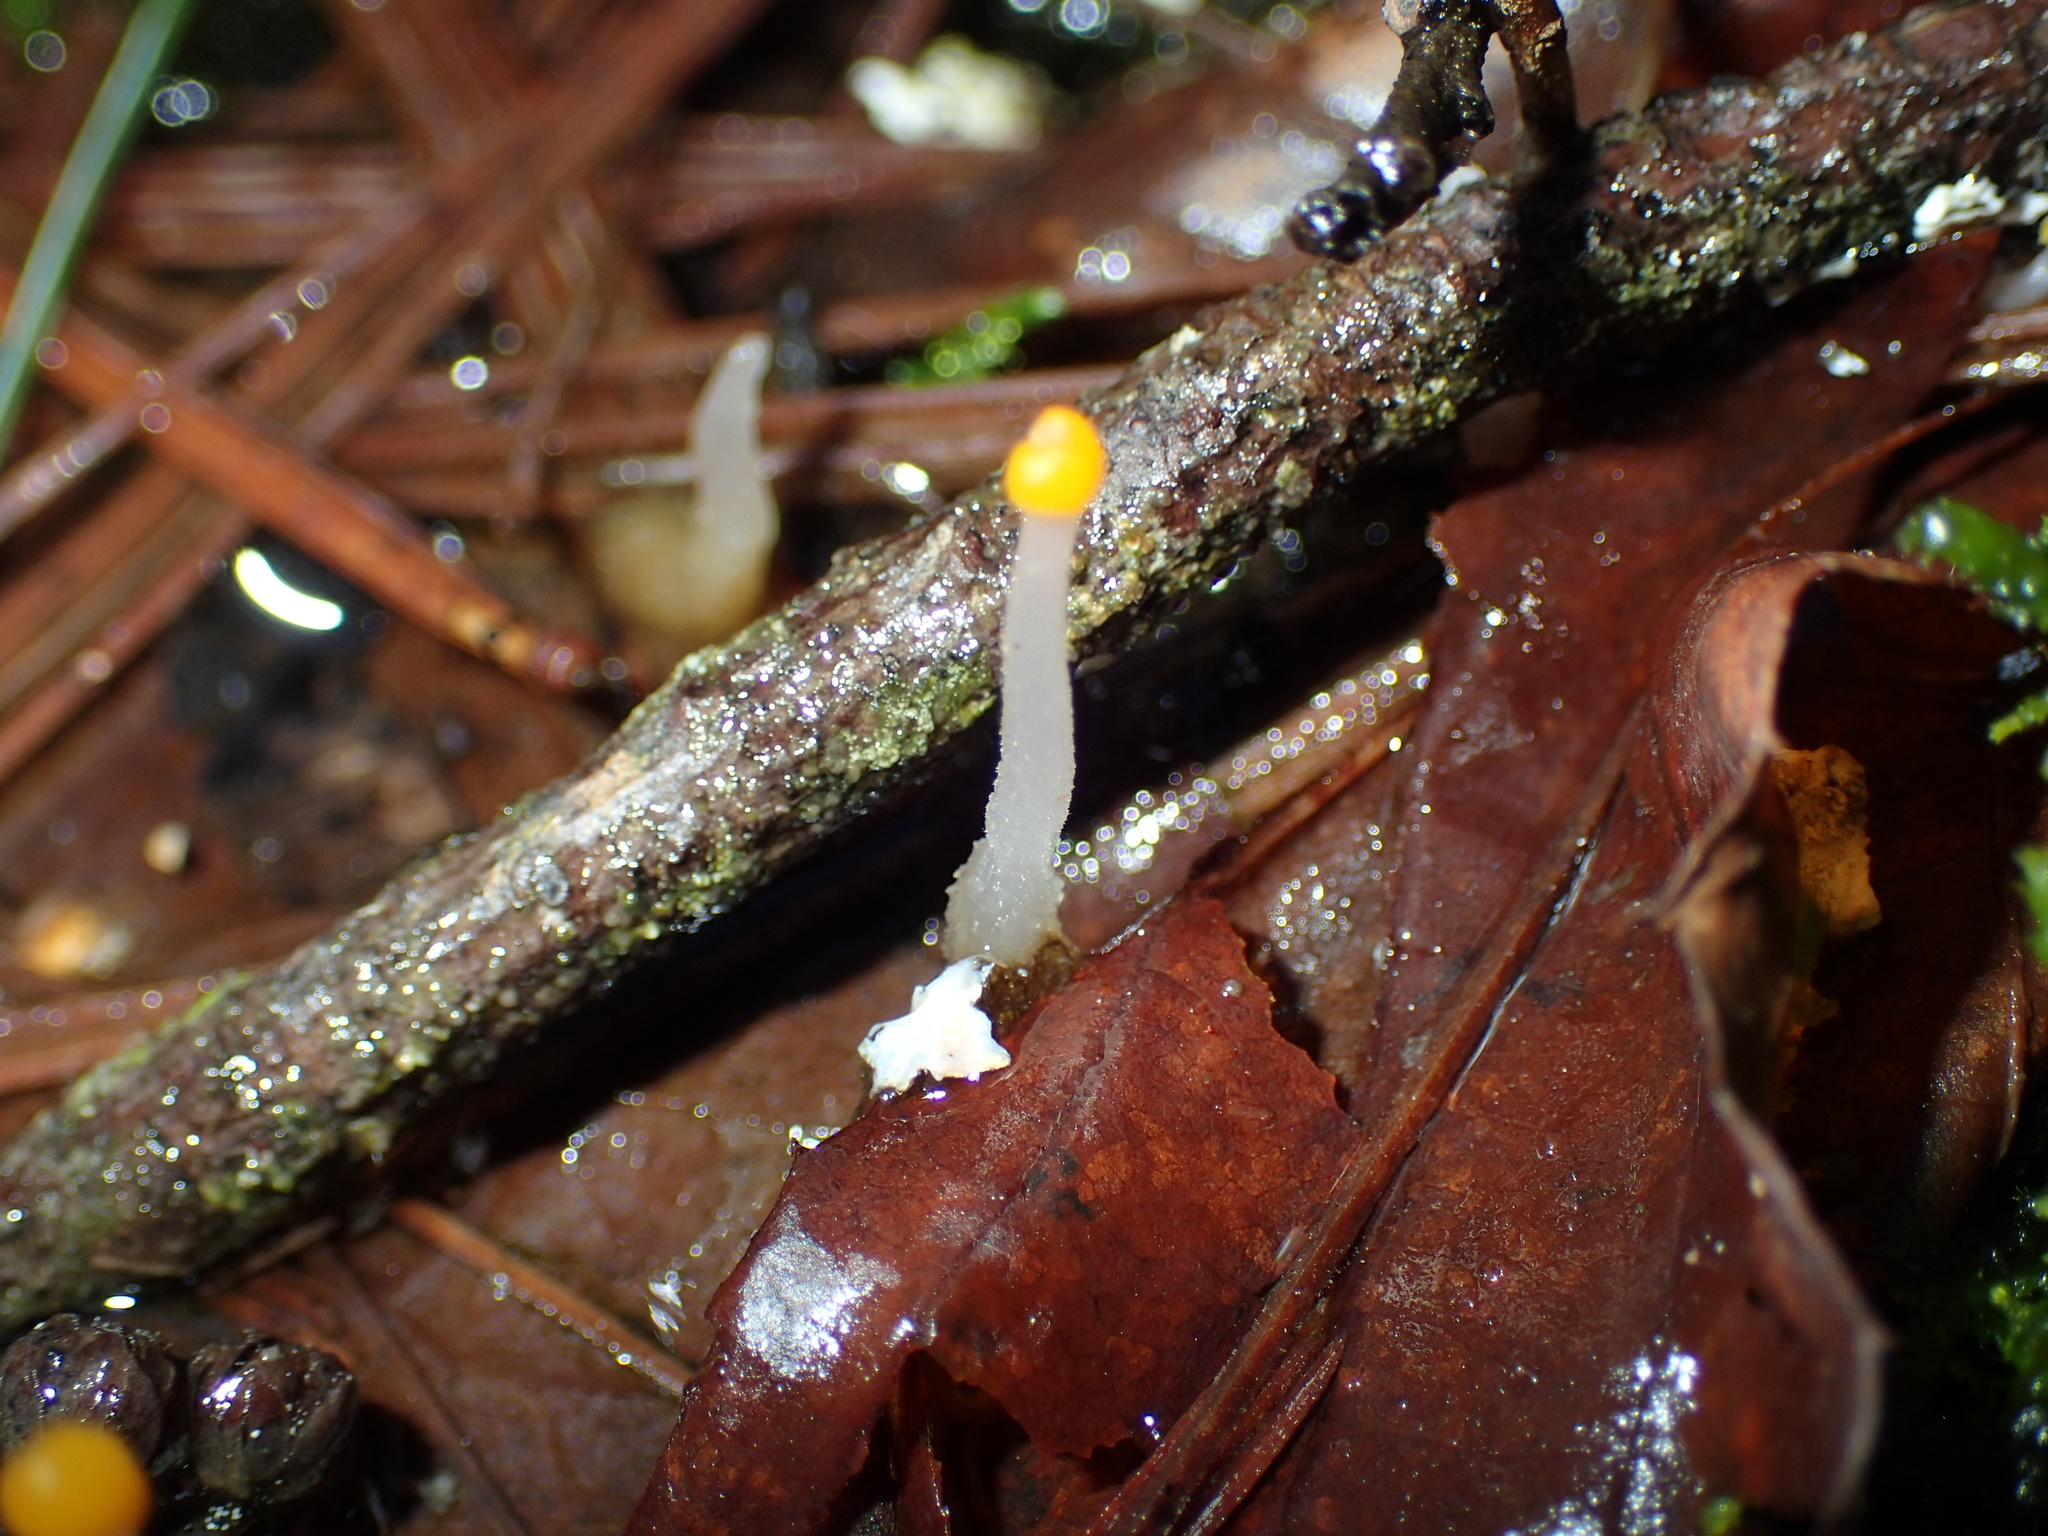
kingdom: Fungi
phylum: Ascomycota
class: Leotiomycetes
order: Helotiales
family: Sclerotiniaceae
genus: Mitrula
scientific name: Mitrula elegans
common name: Swamp beacon
